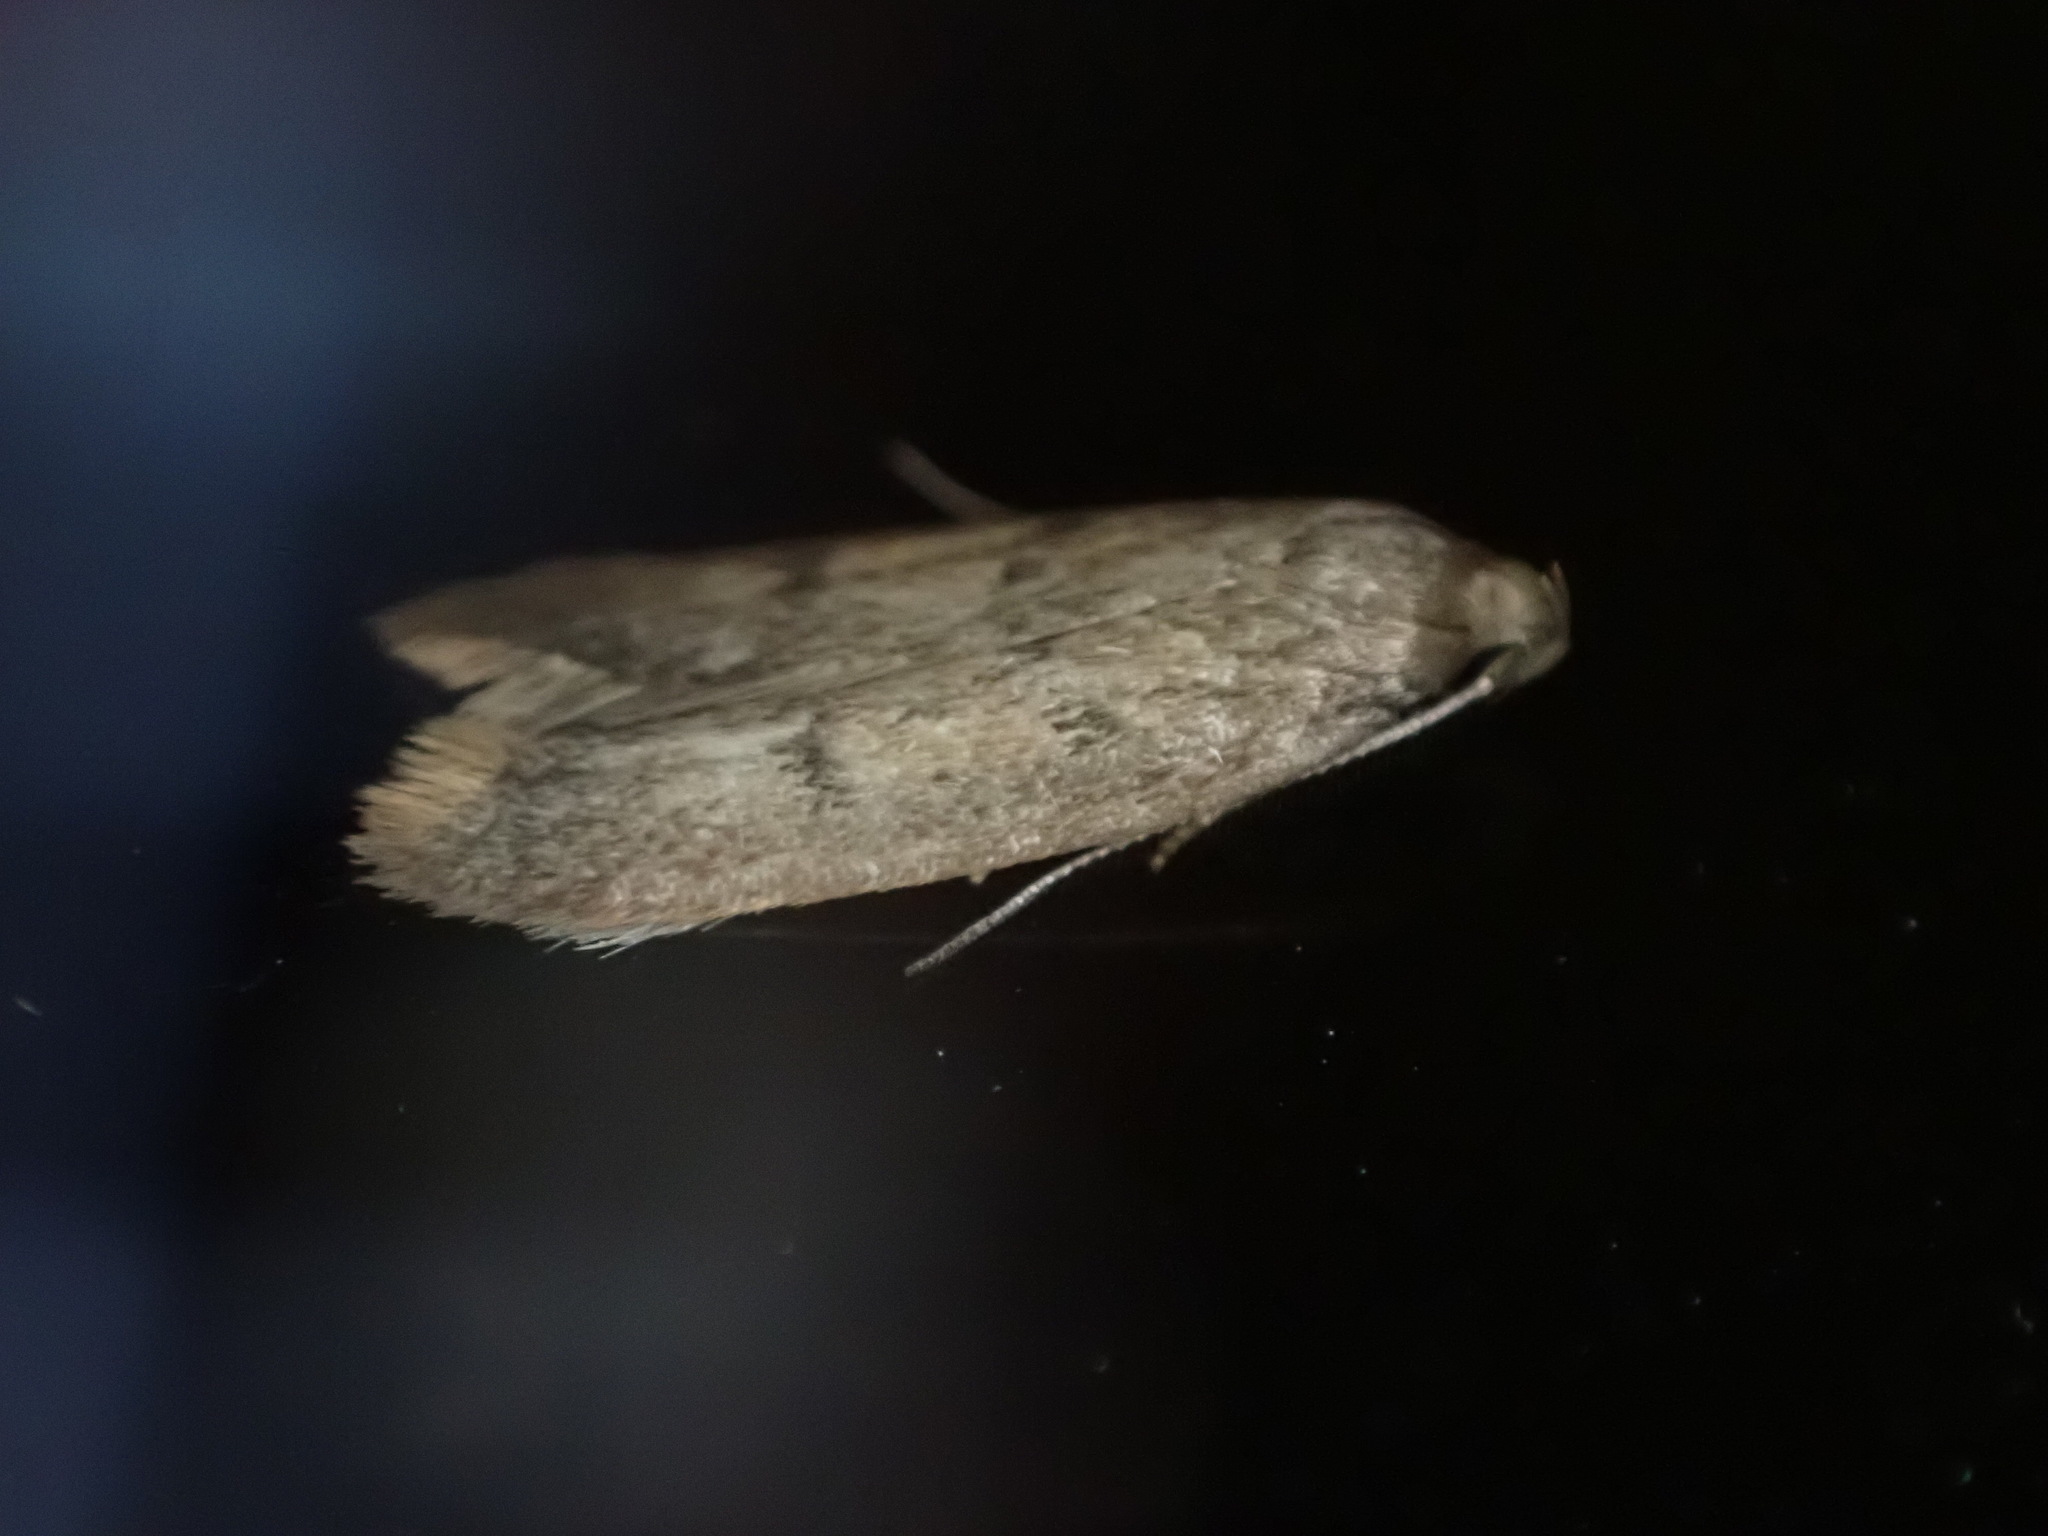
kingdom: Animalia
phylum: Arthropoda
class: Insecta
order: Lepidoptera
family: Oecophoridae
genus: Tachystola
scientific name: Tachystola acroxantha
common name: Ruddy streak
